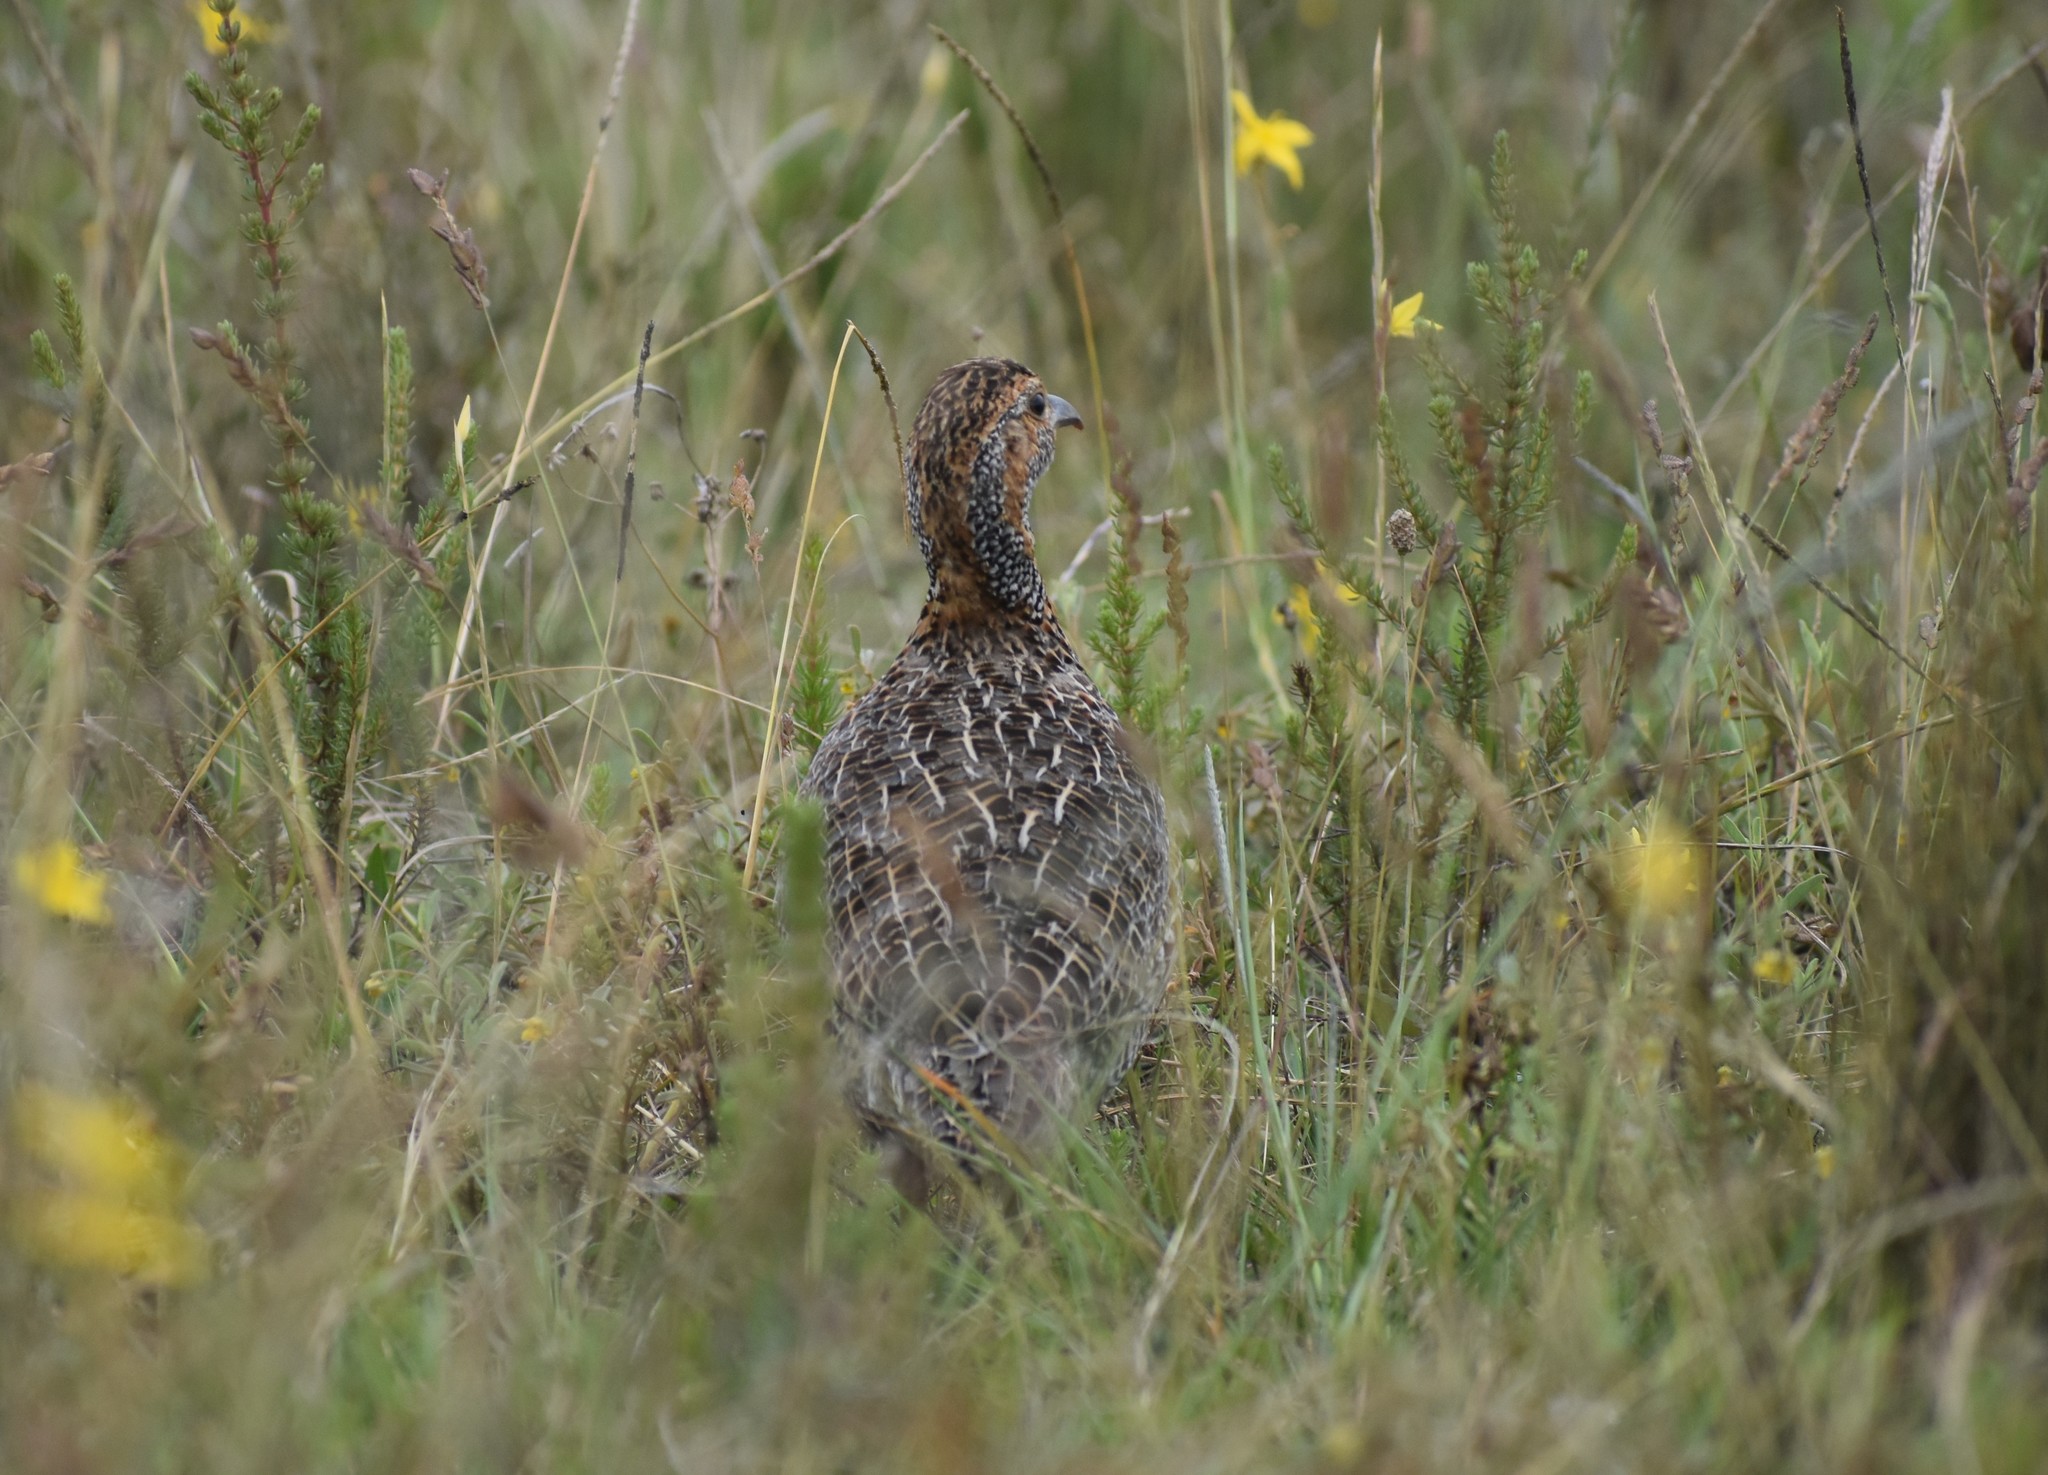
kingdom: Animalia
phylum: Chordata
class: Aves
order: Galliformes
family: Phasianidae
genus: Scleroptila
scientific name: Scleroptila afra
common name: Grey-winged francolin
